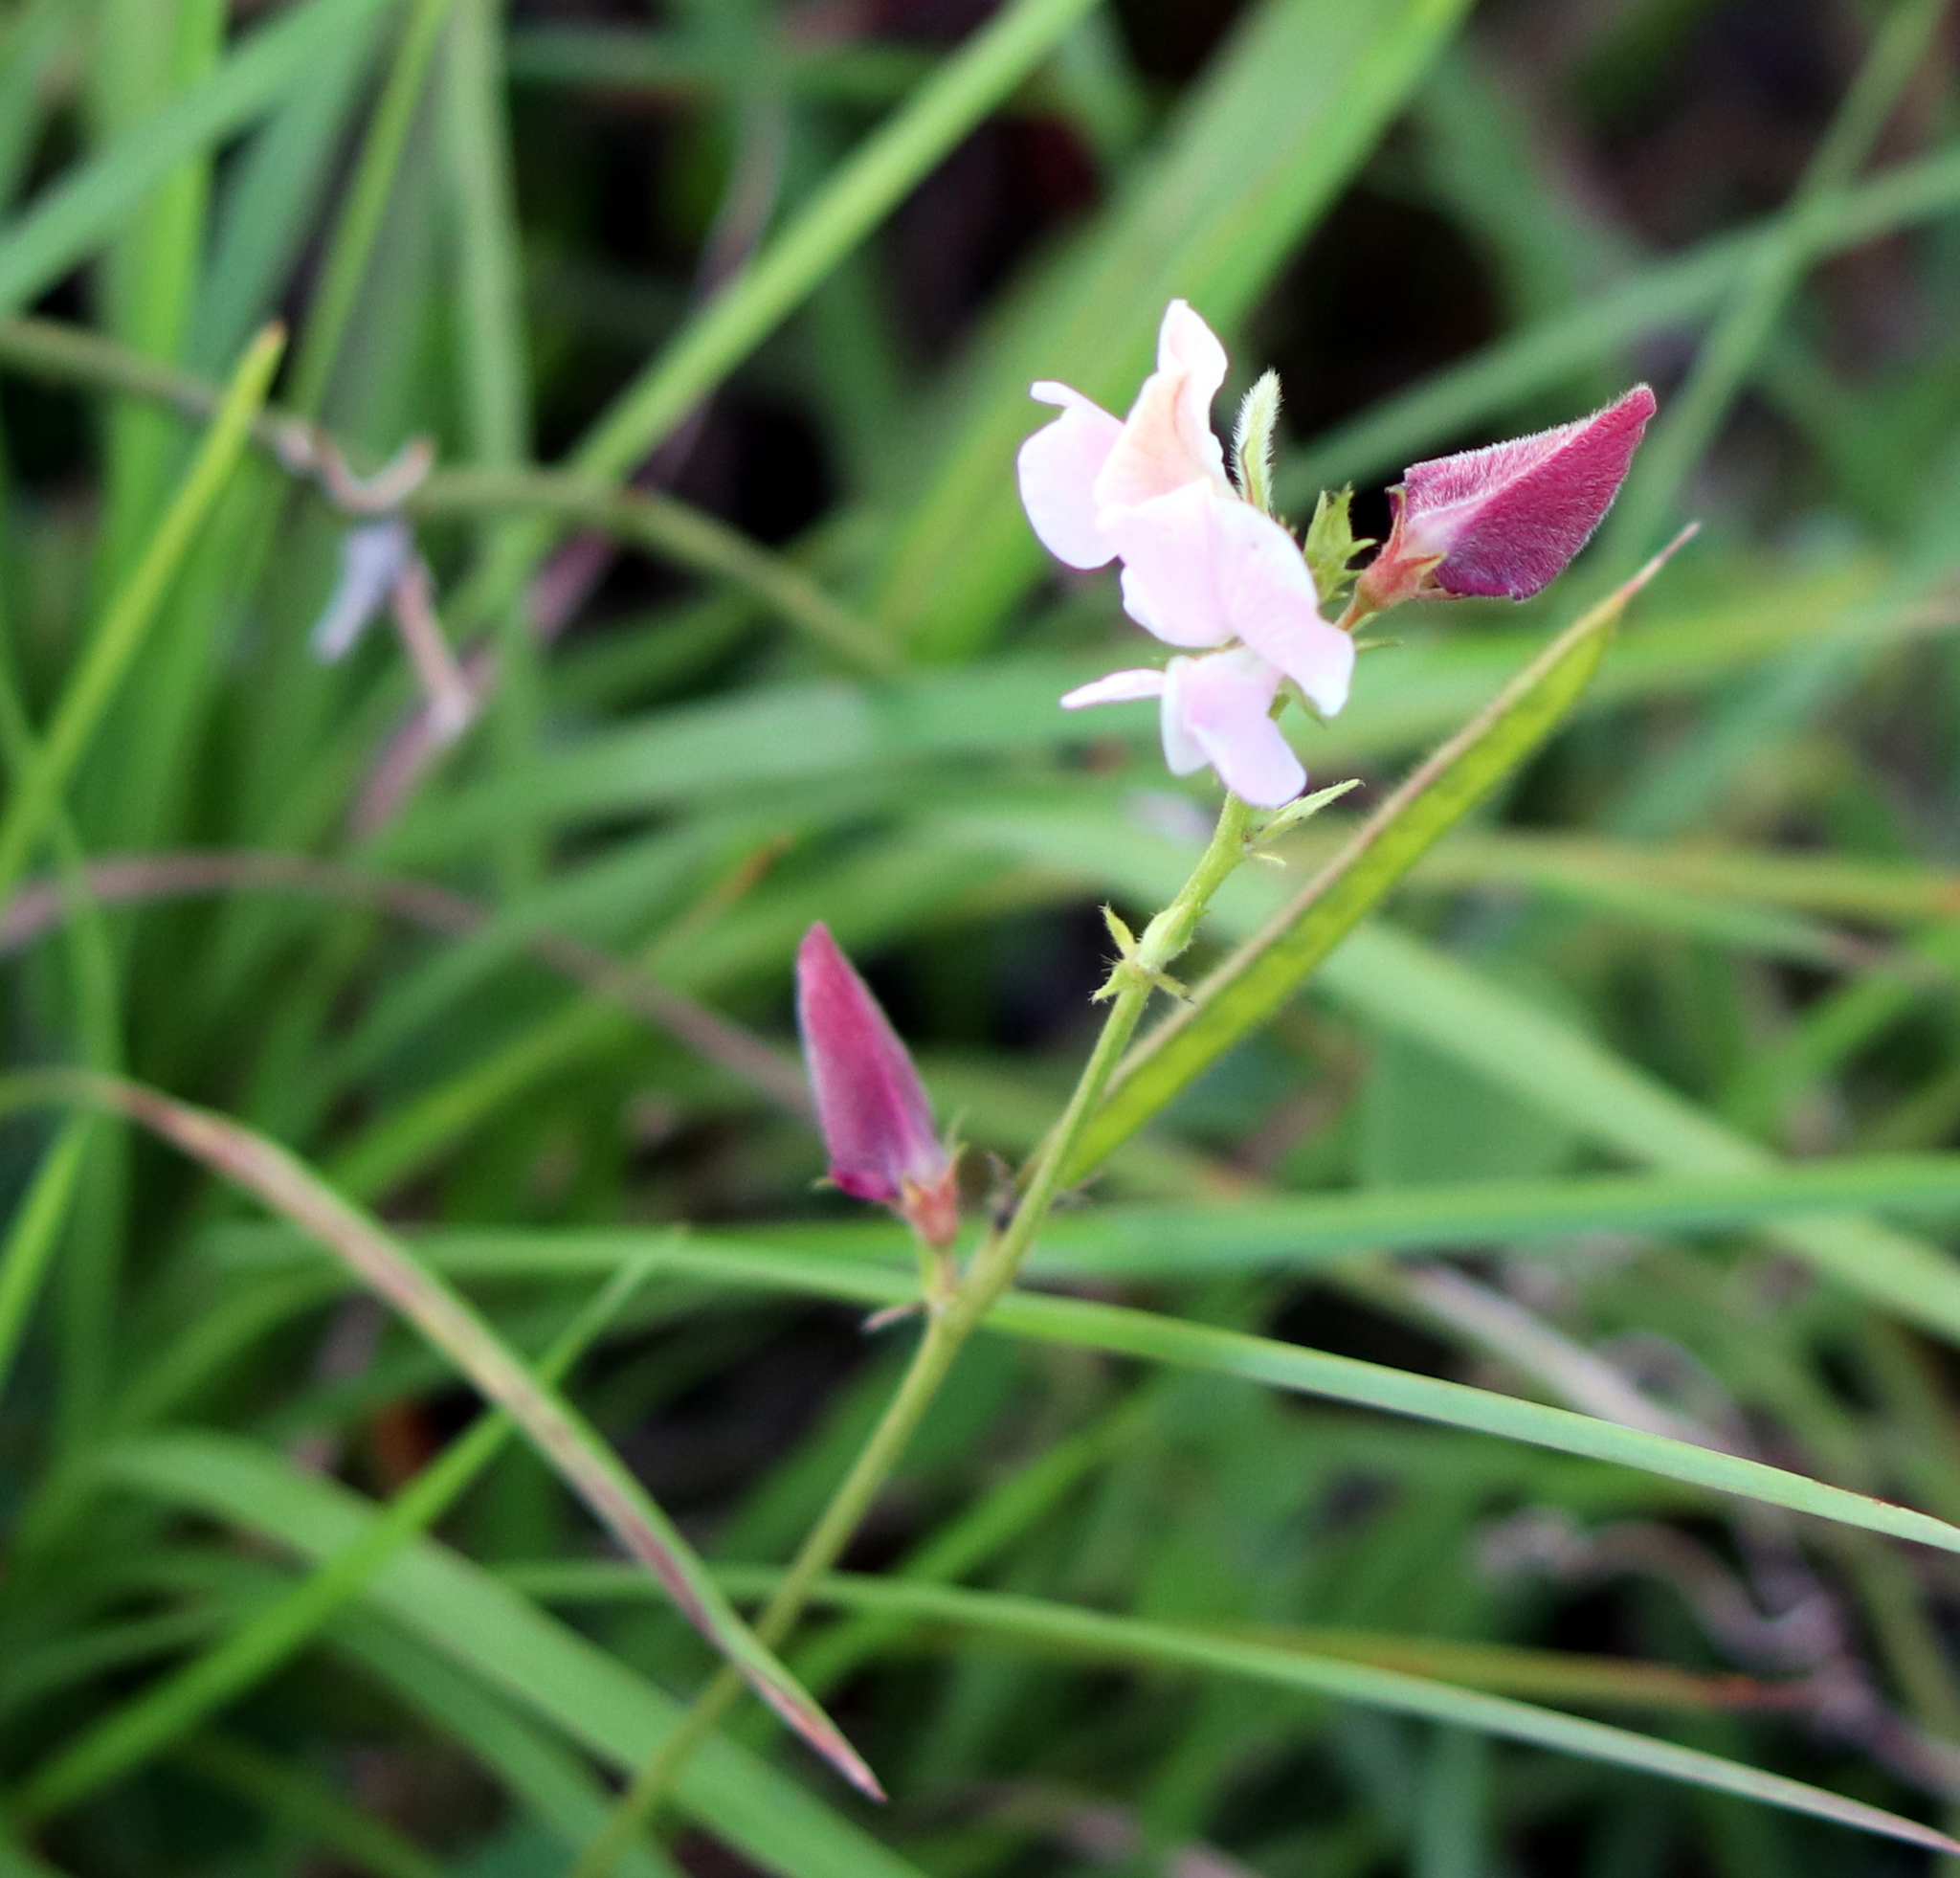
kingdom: Plantae
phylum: Tracheophyta
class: Magnoliopsida
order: Fabales
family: Fabaceae
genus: Tephrosia
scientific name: Tephrosia onobrychoides
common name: Multi-bloom hoary-pea
